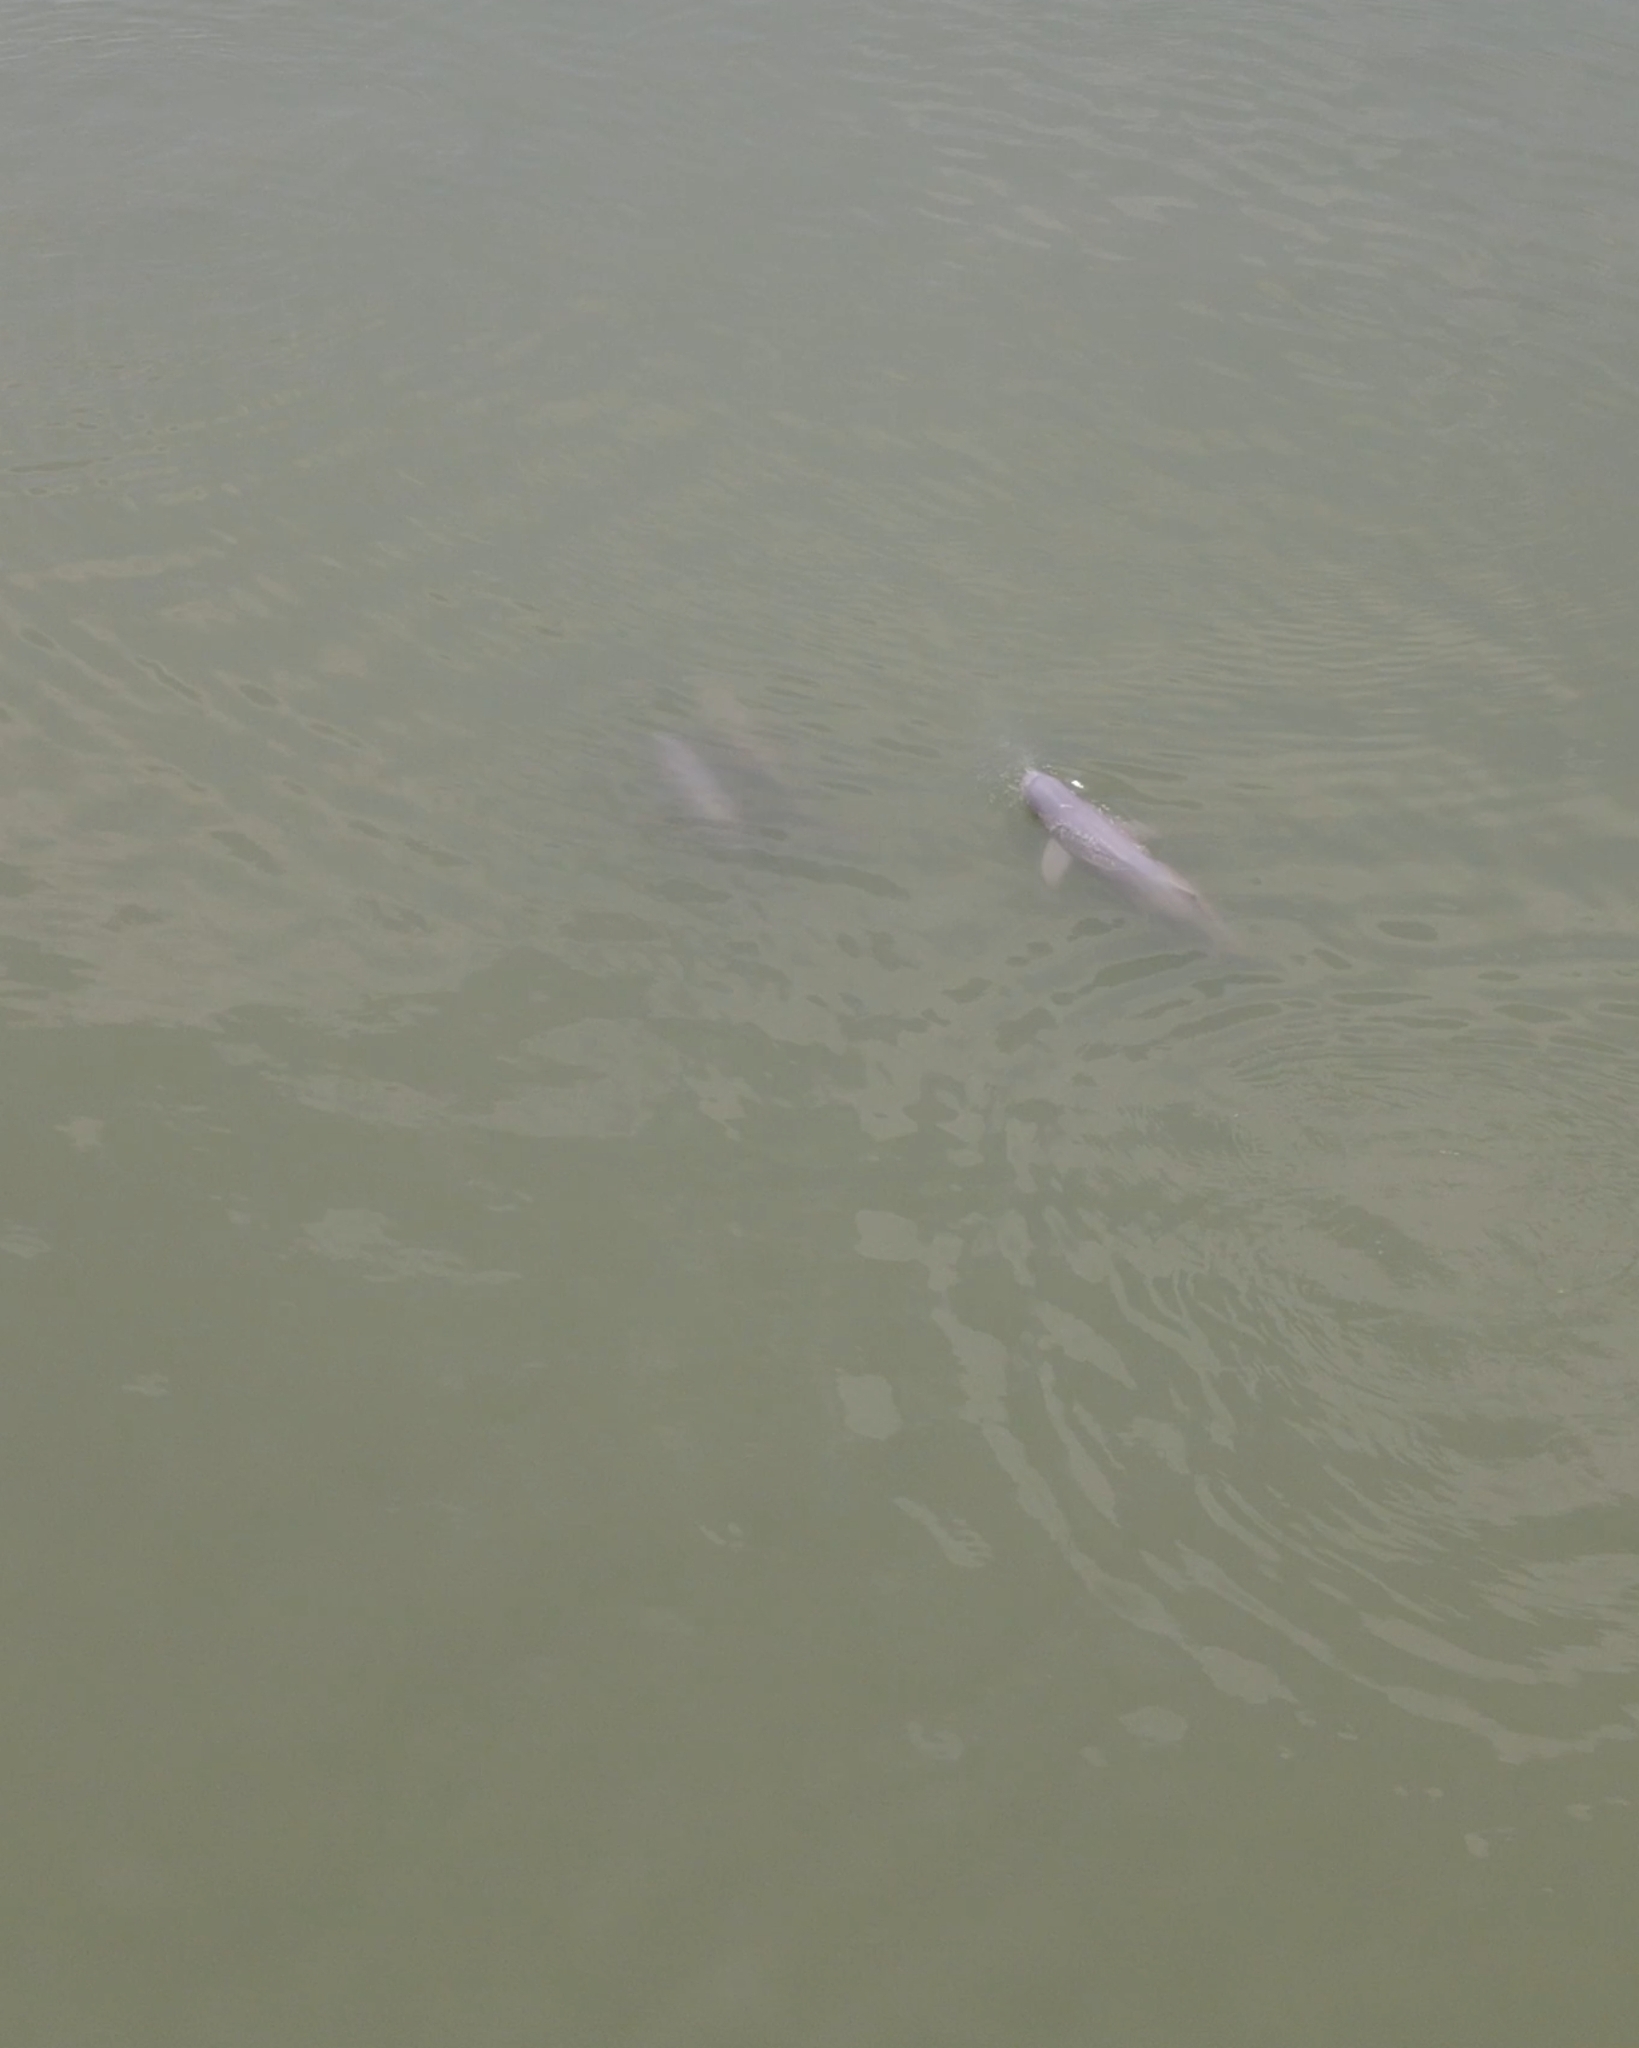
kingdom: Animalia
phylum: Chordata
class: Mammalia
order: Cetacea
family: Delphinidae
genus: Orcaella
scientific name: Orcaella brevirostris
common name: Irrawaddy dolphin
